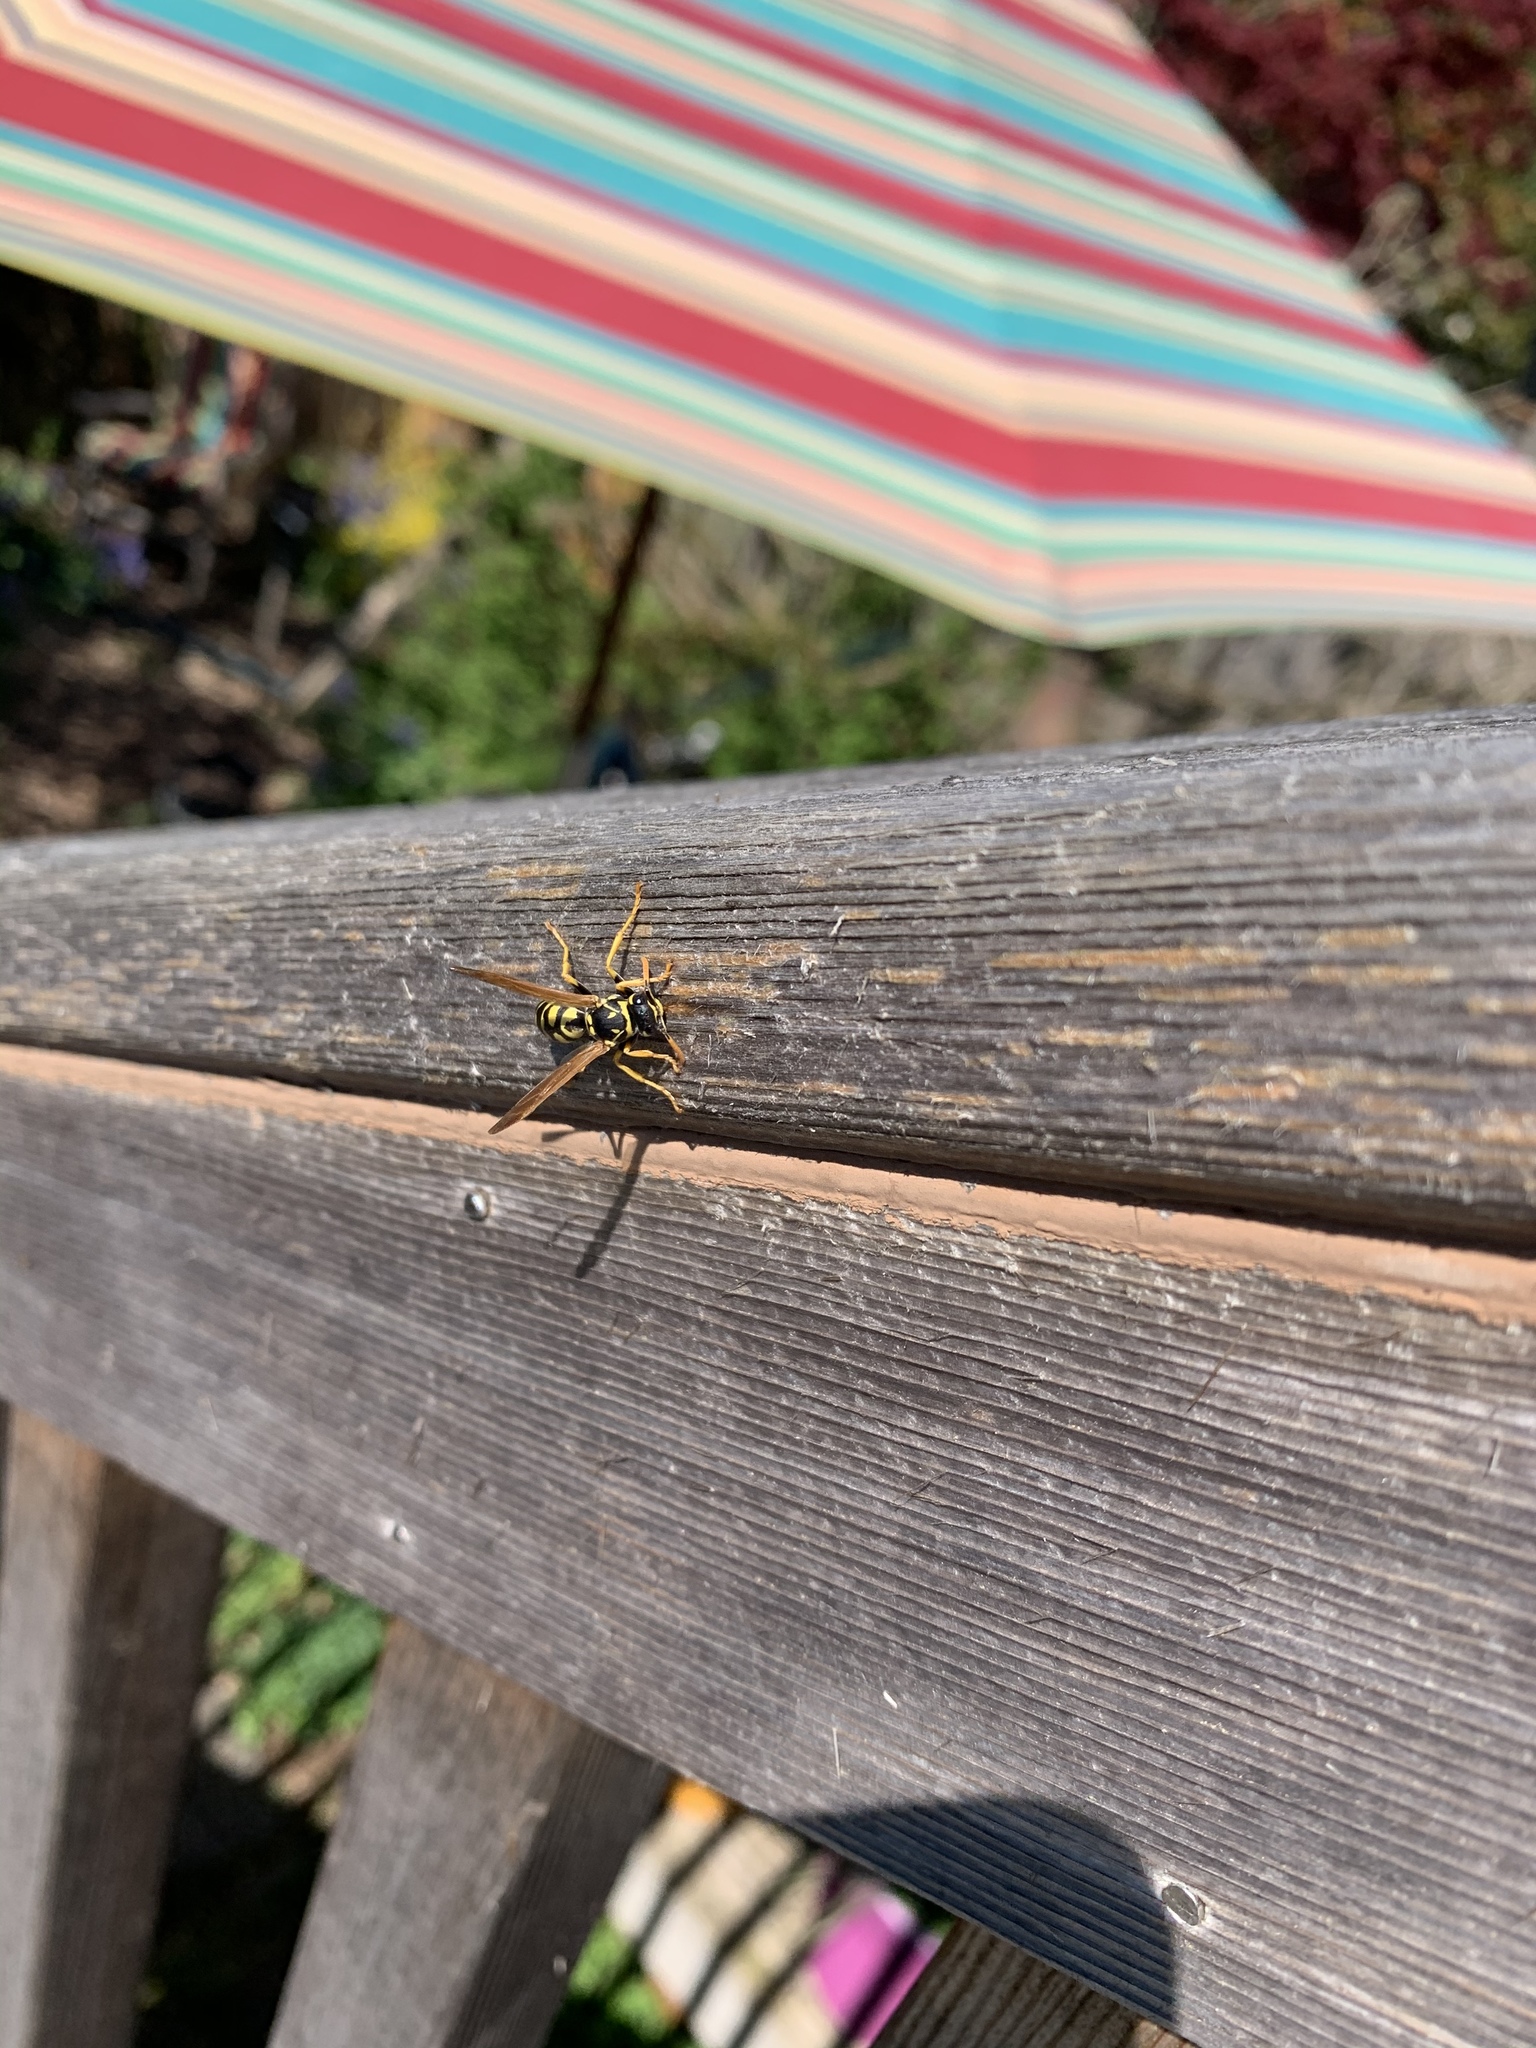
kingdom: Animalia
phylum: Arthropoda
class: Insecta
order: Hymenoptera
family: Eumenidae
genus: Polistes
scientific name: Polistes dominula
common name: Paper wasp
